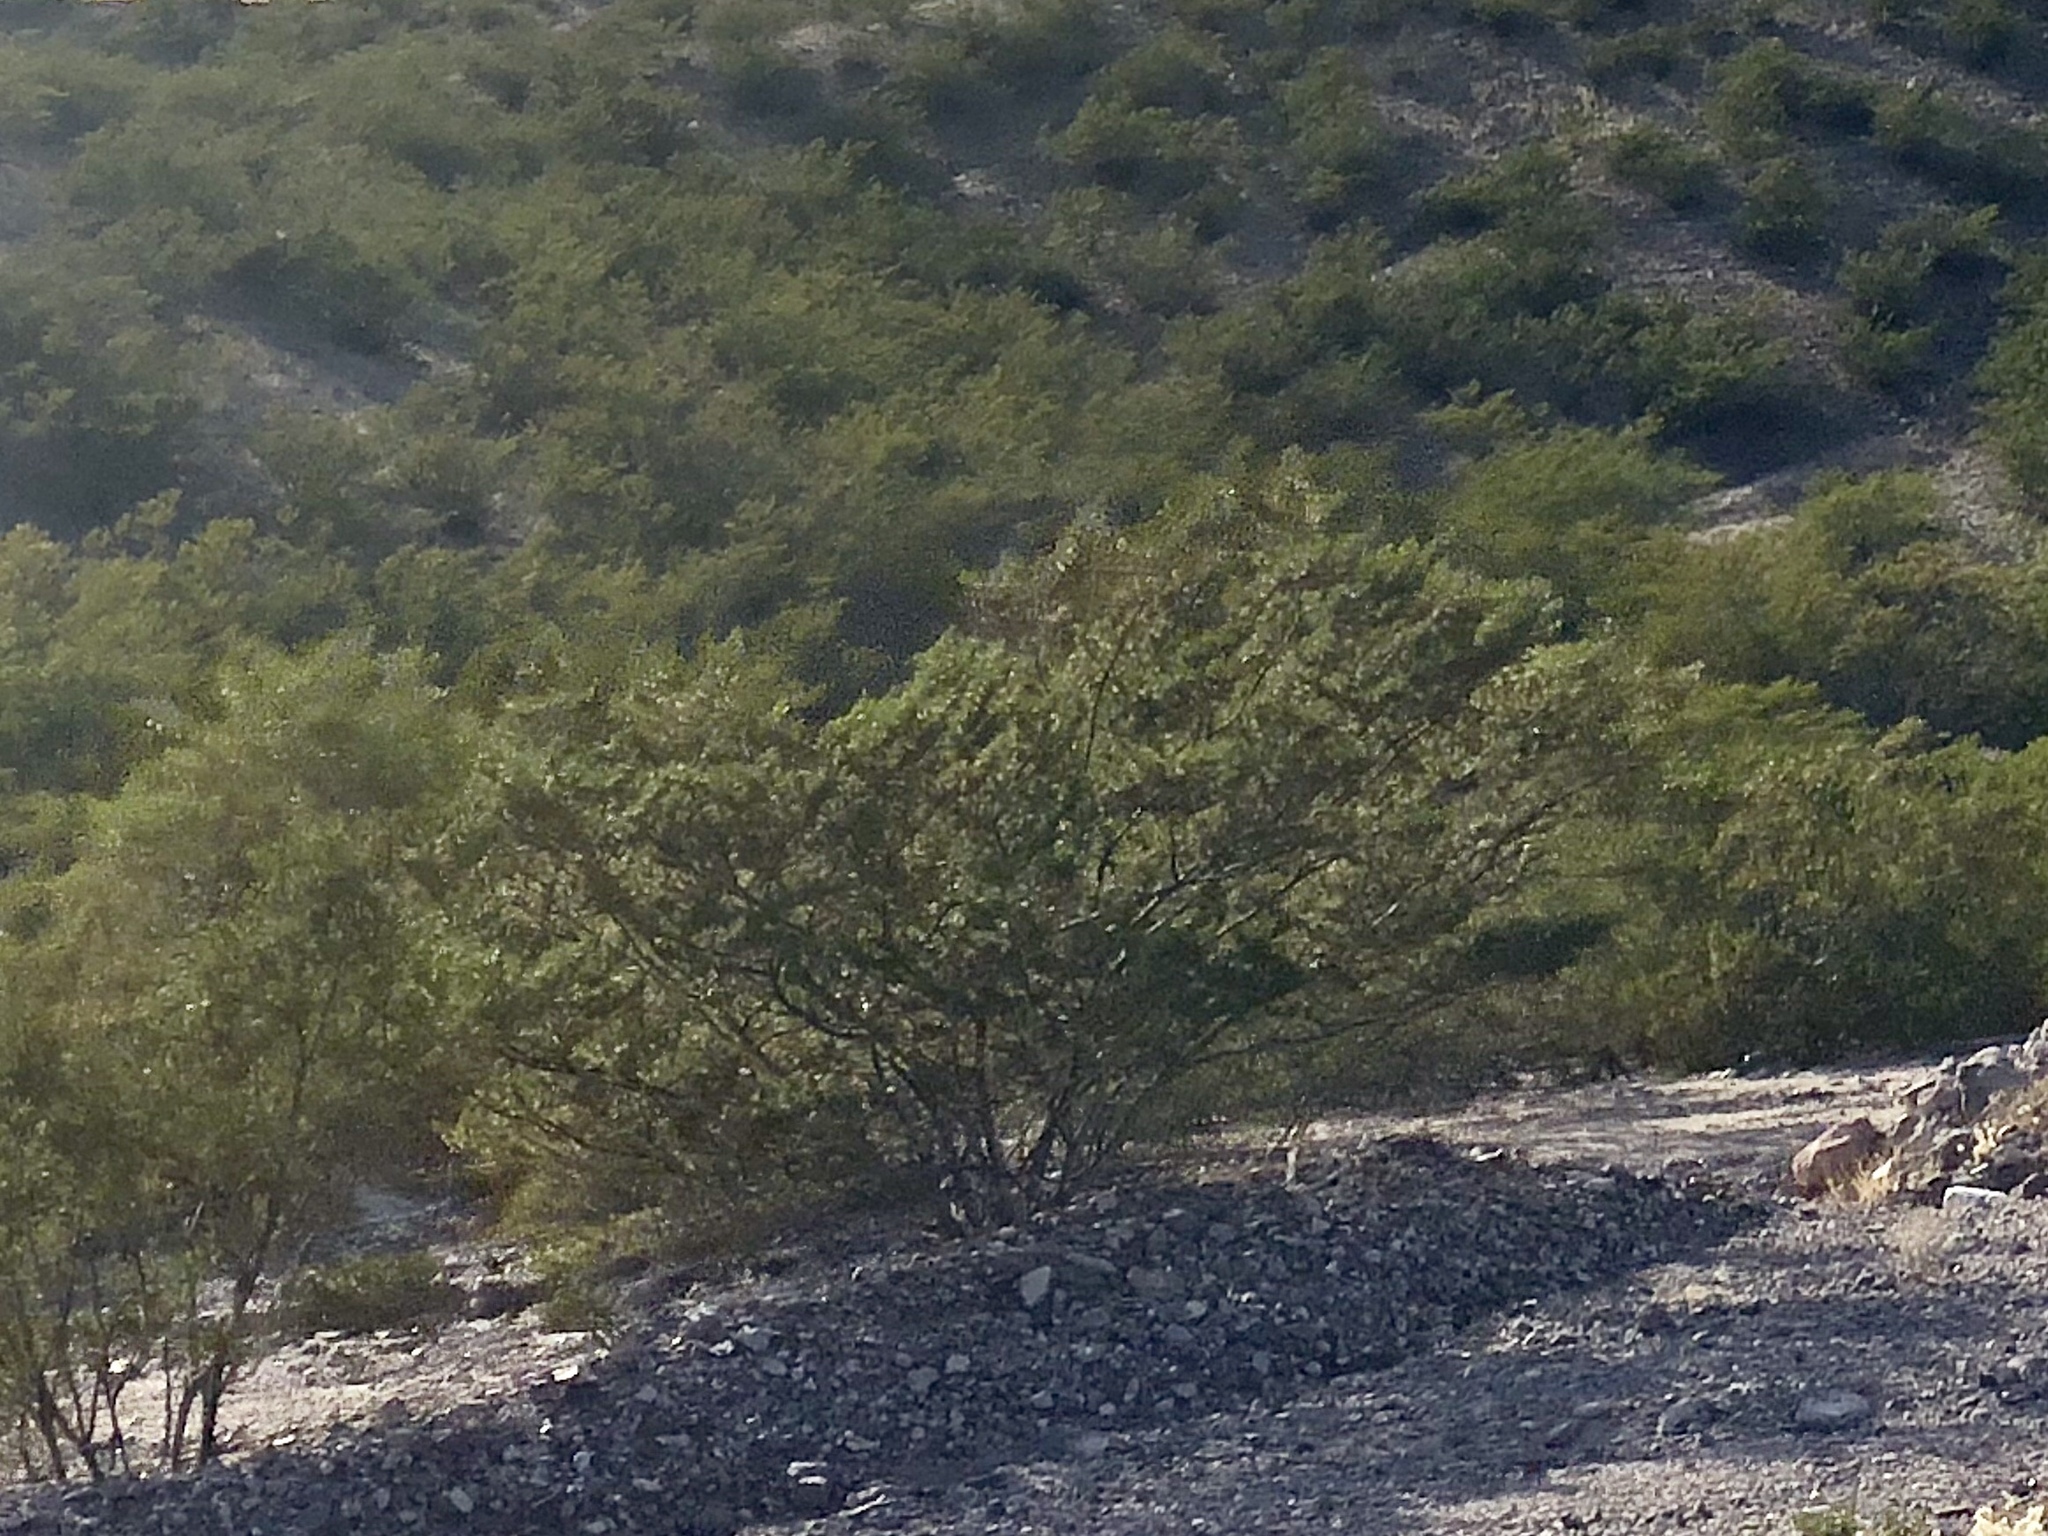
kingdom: Plantae
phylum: Tracheophyta
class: Magnoliopsida
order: Zygophyllales
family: Zygophyllaceae
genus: Larrea
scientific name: Larrea tridentata
